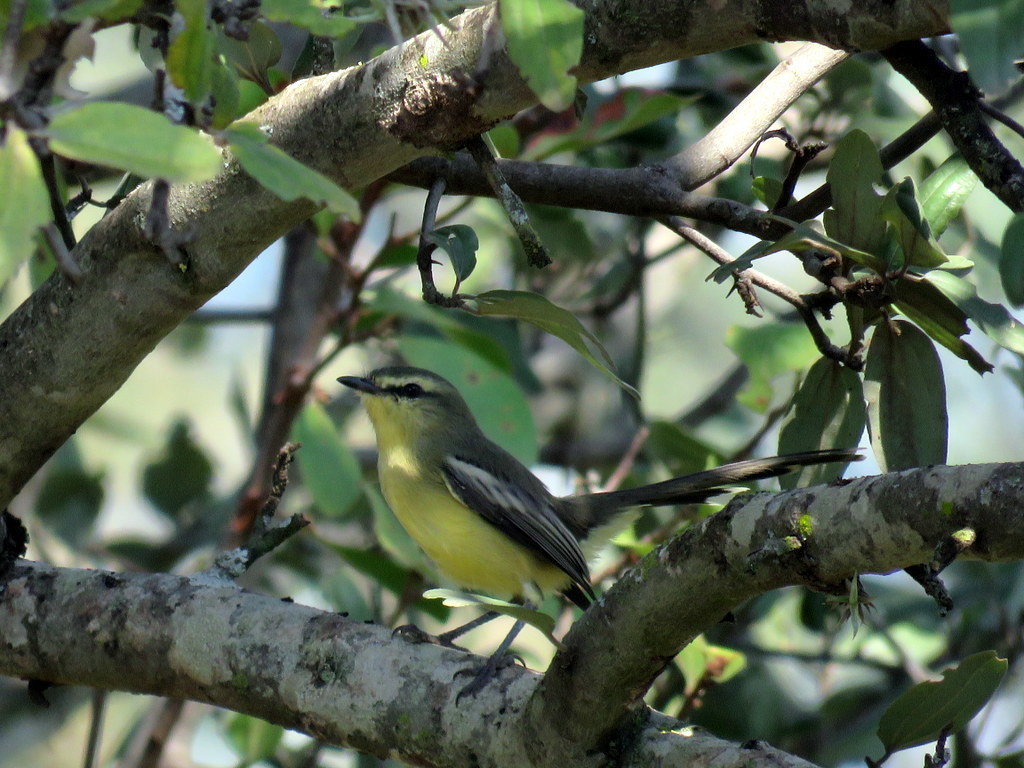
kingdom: Animalia
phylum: Chordata
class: Aves
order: Passeriformes
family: Tyrannidae
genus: Stigmatura
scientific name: Stigmatura budytoides
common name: Greater wagtail-tyrant
